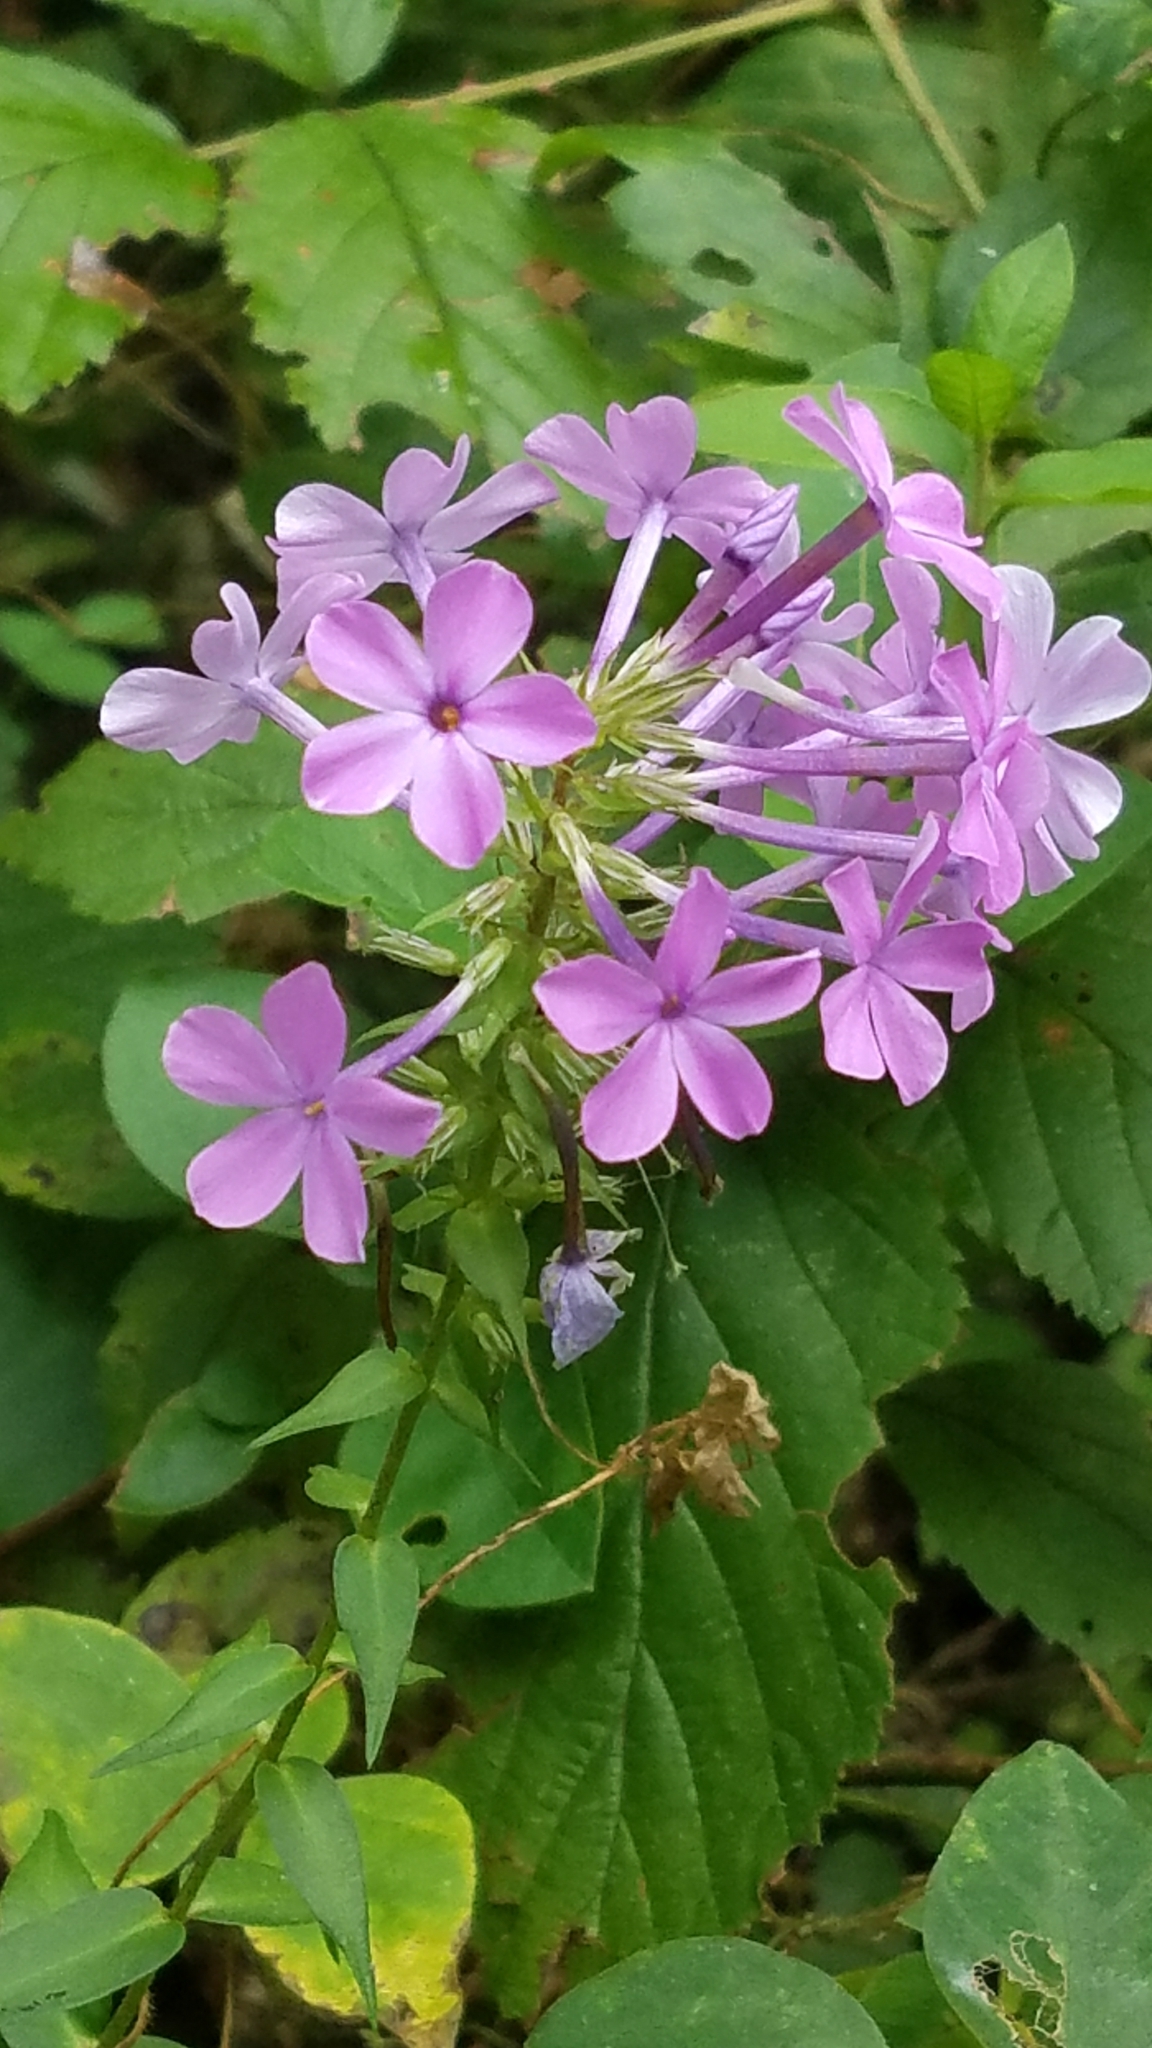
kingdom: Plantae
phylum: Tracheophyta
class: Magnoliopsida
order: Ericales
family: Polemoniaceae
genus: Phlox
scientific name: Phlox maculata
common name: Meadow phlox
